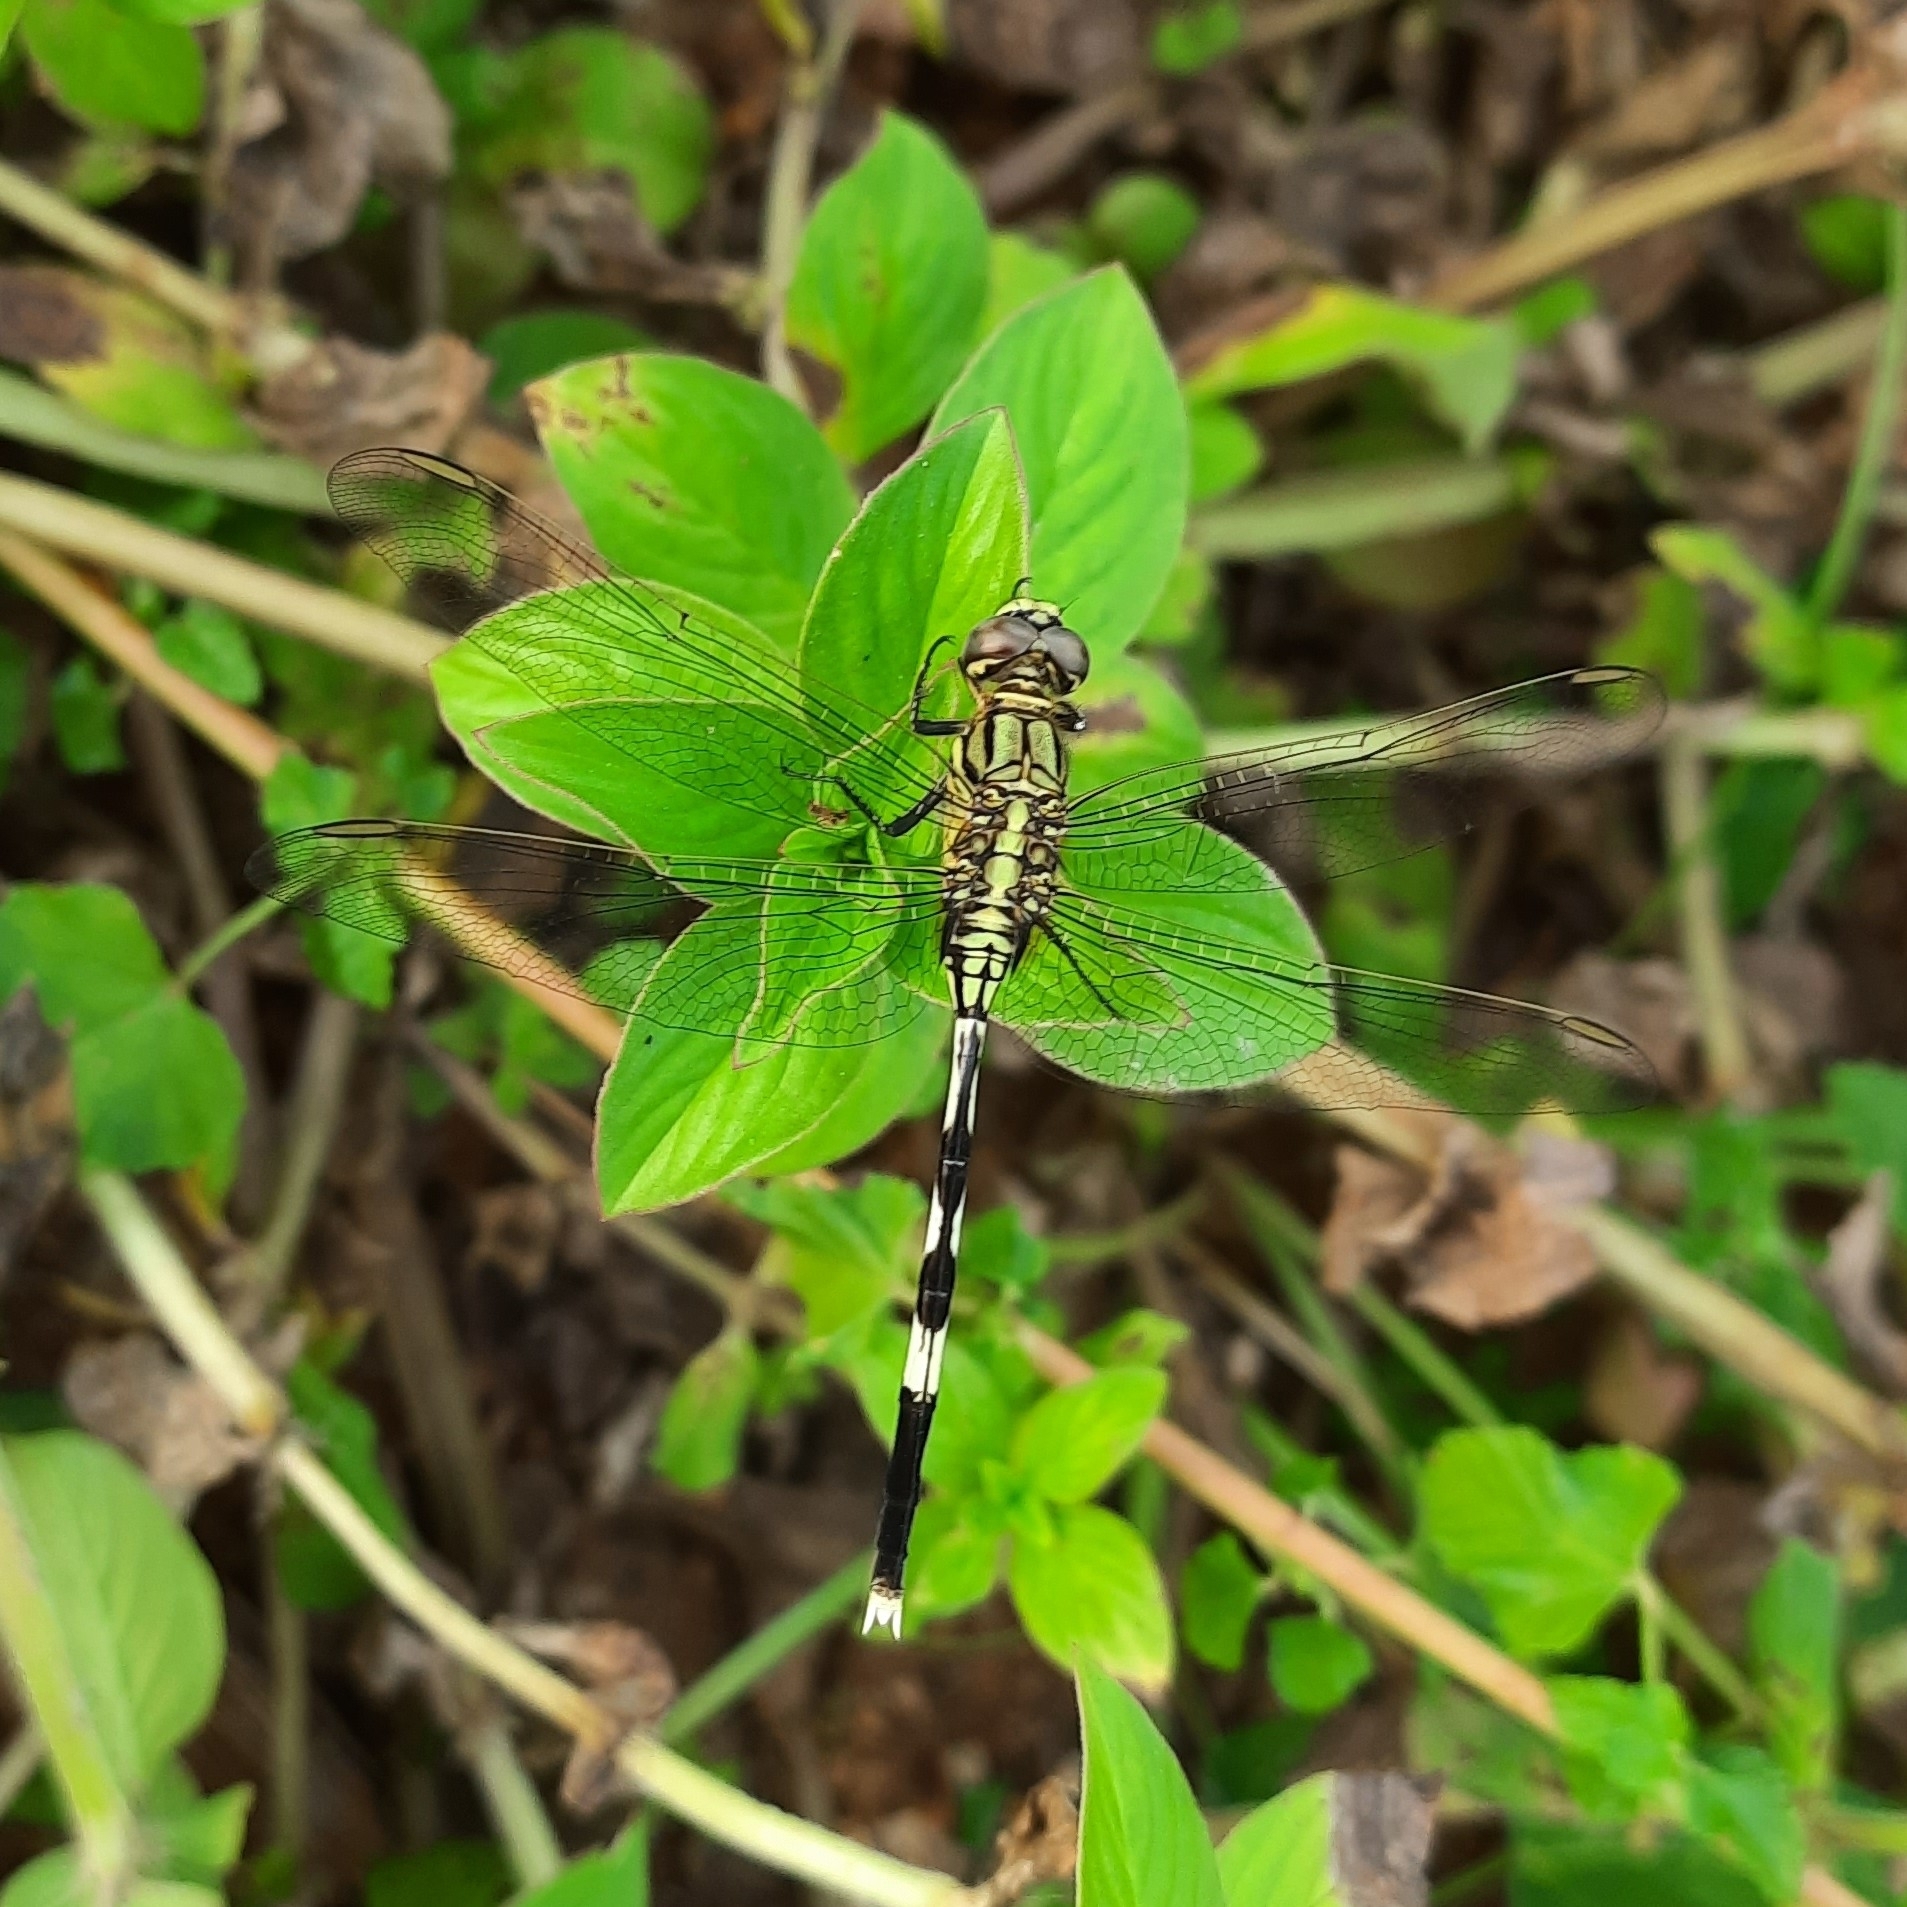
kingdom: Animalia
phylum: Arthropoda
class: Insecta
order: Odonata
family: Libellulidae
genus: Orthetrum
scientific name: Orthetrum sabina
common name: Slender skimmer
